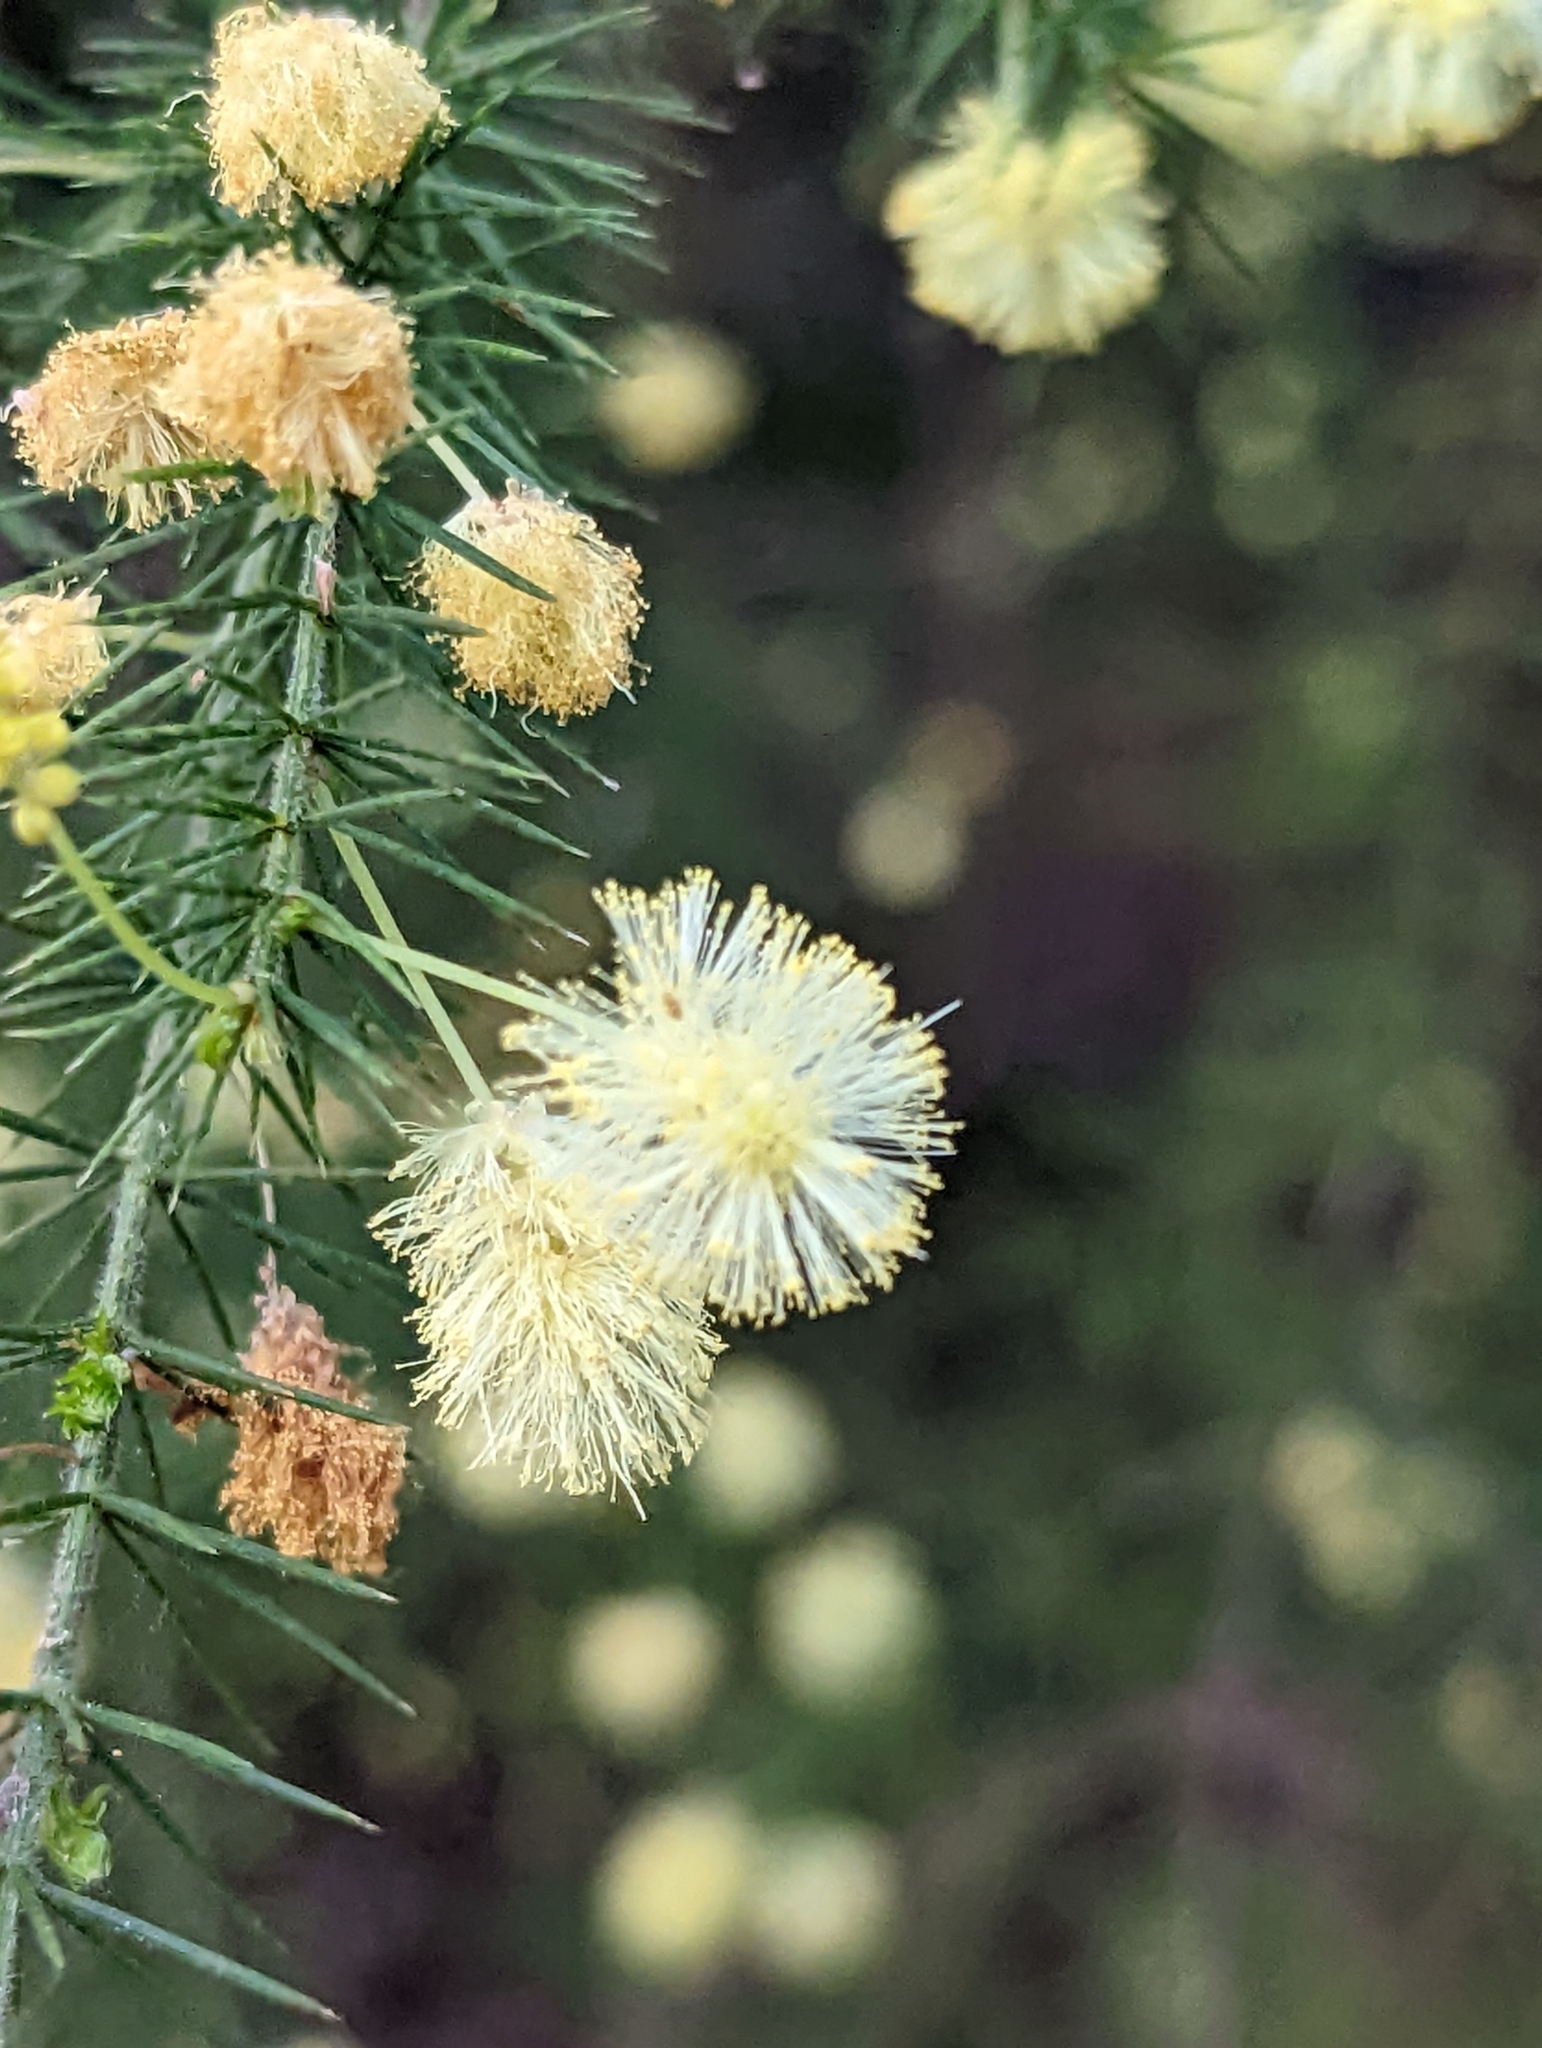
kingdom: Plantae
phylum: Tracheophyta
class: Magnoliopsida
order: Fabales
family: Fabaceae
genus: Acacia
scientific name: Acacia ulicifolia
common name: Juniper wattle
